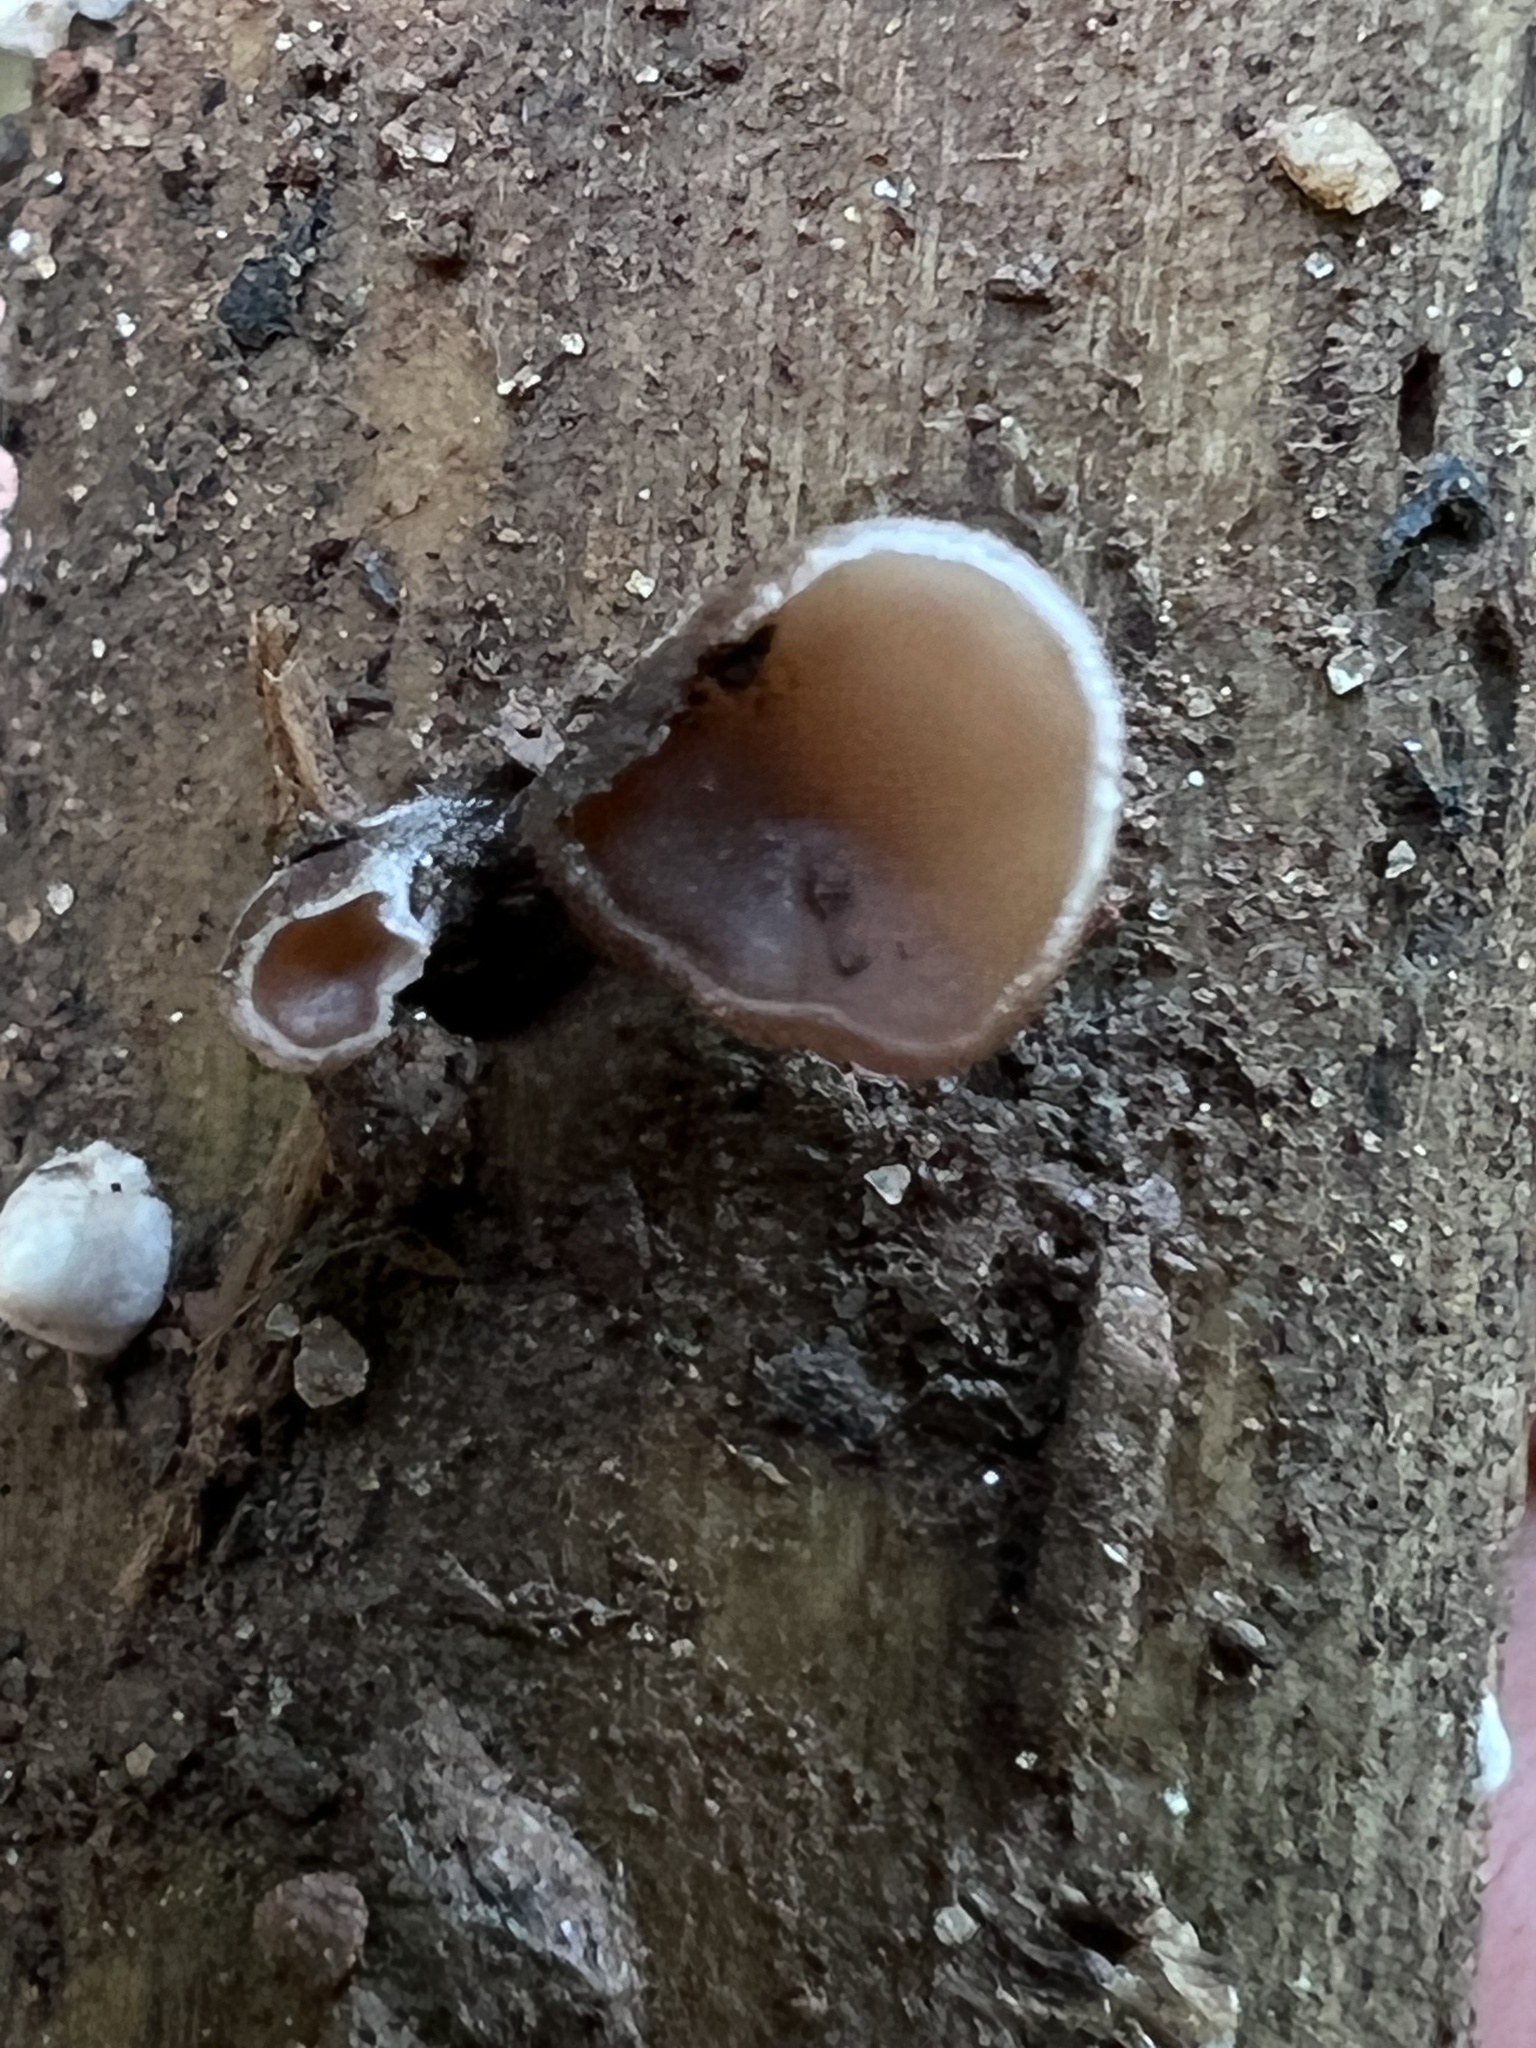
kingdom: Fungi
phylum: Basidiomycota
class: Dacrymycetes
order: Dacrymycetales
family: Dacrymycetaceae
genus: Dacryopinax
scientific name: Dacryopinax elegans
